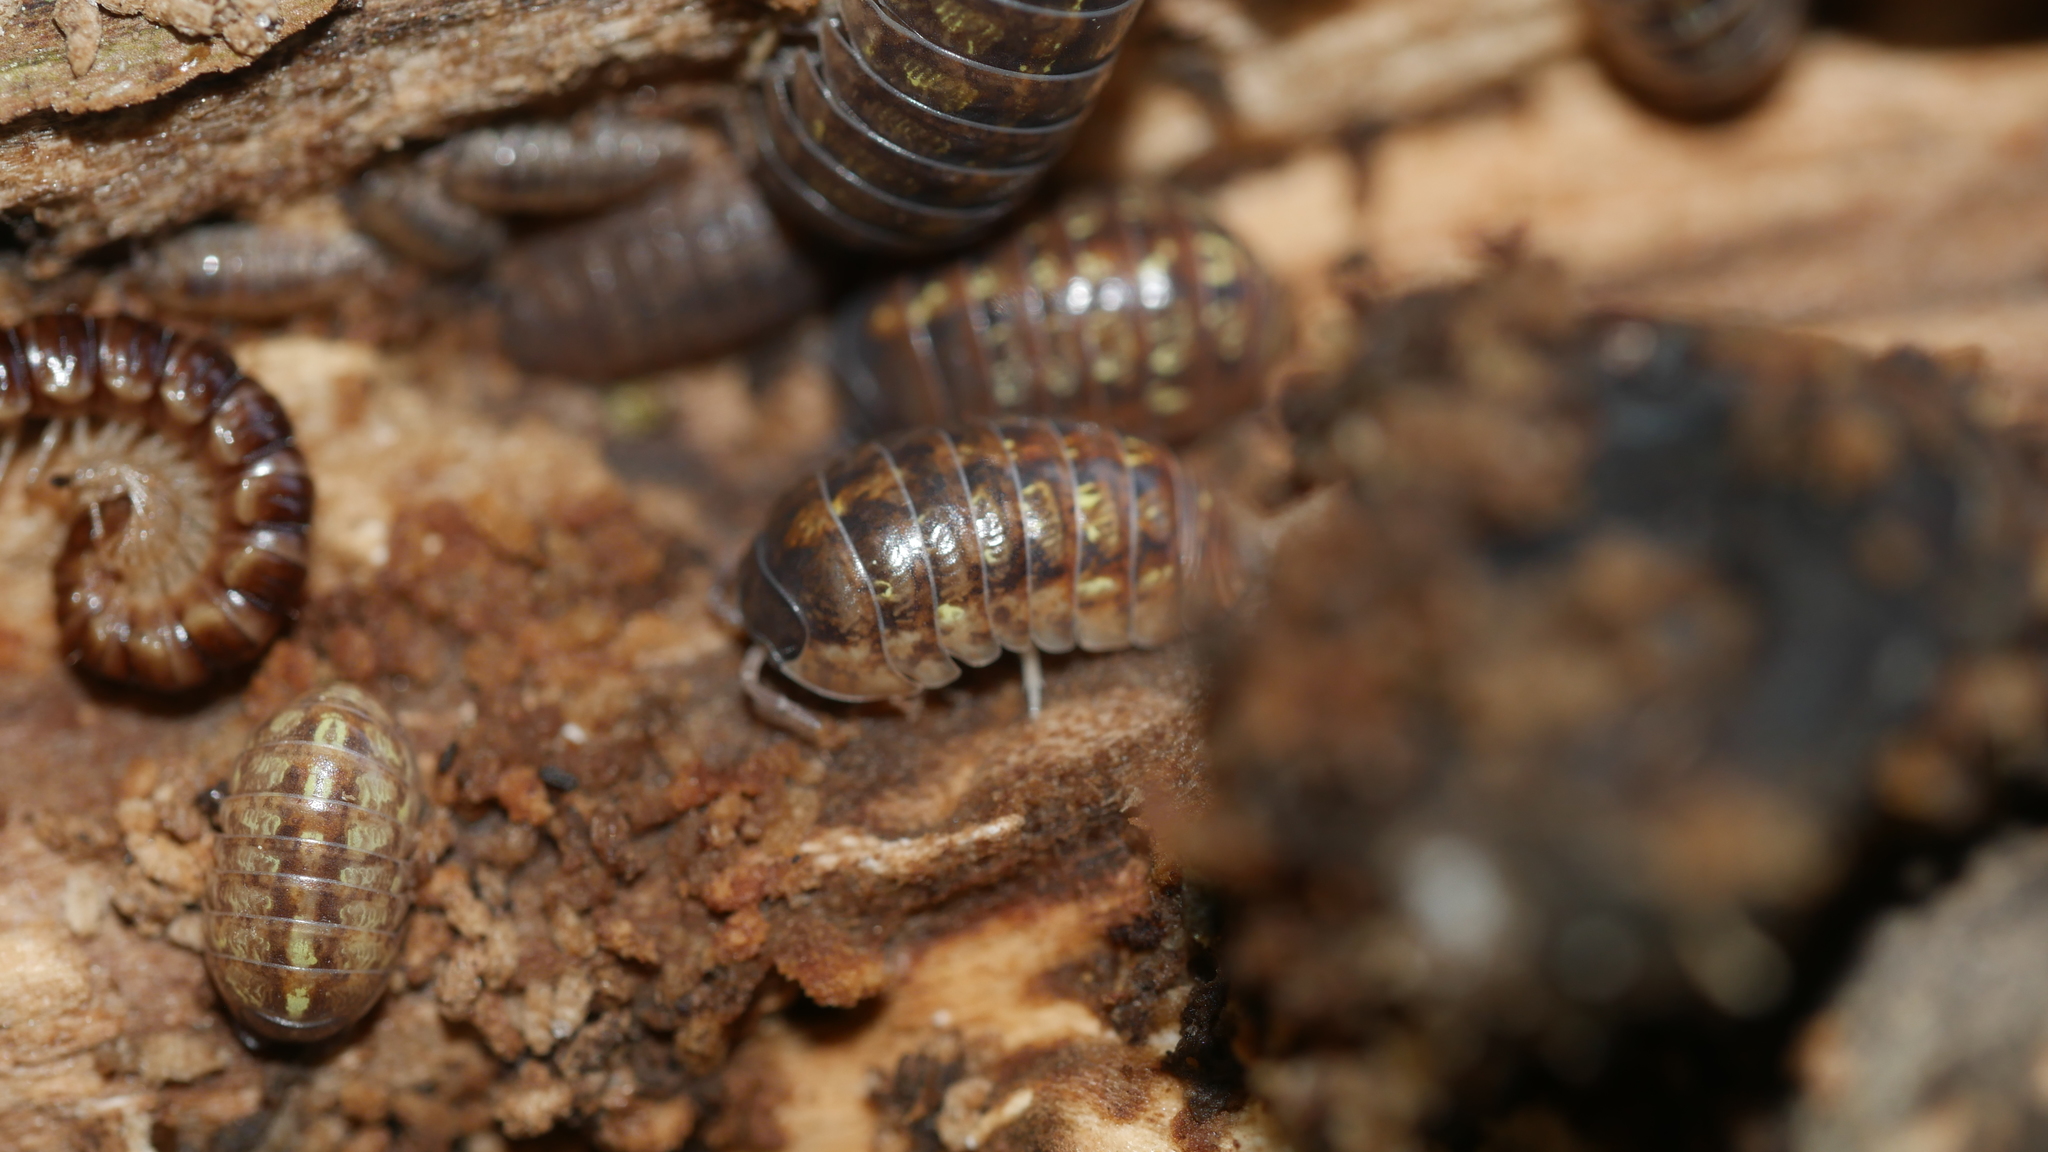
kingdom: Animalia
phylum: Arthropoda
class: Malacostraca
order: Isopoda
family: Armadillidiidae
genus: Armadillidium
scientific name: Armadillidium vulgare
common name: Common pill woodlouse
